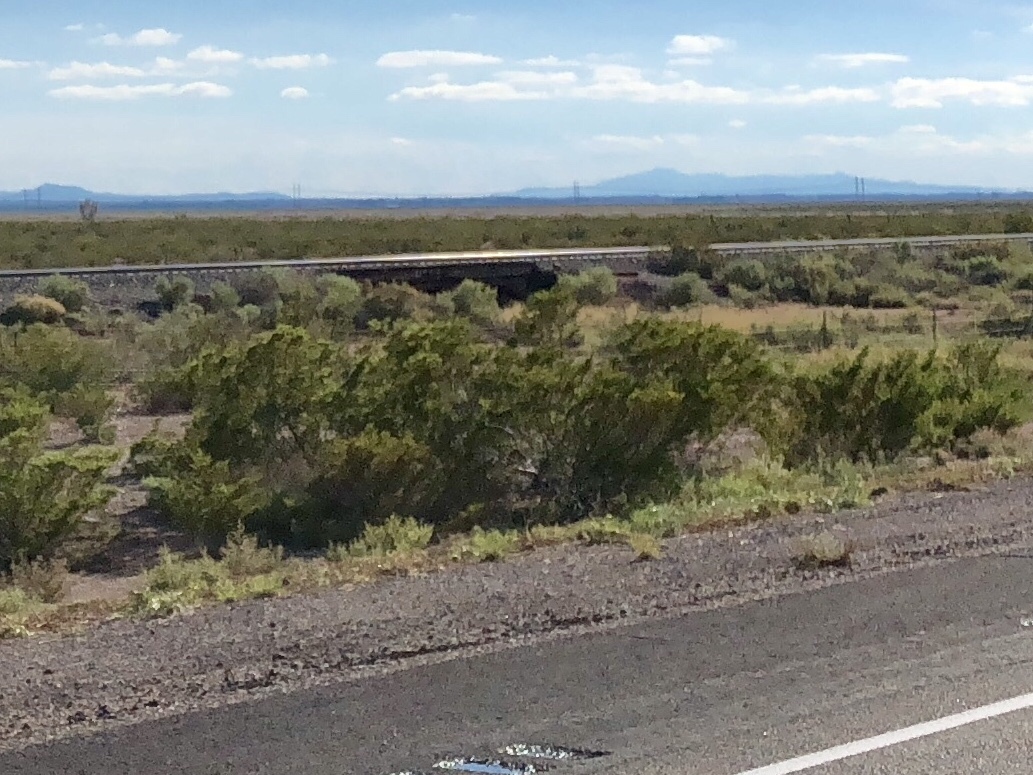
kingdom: Plantae
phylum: Tracheophyta
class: Magnoliopsida
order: Zygophyllales
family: Zygophyllaceae
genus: Larrea
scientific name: Larrea tridentata
